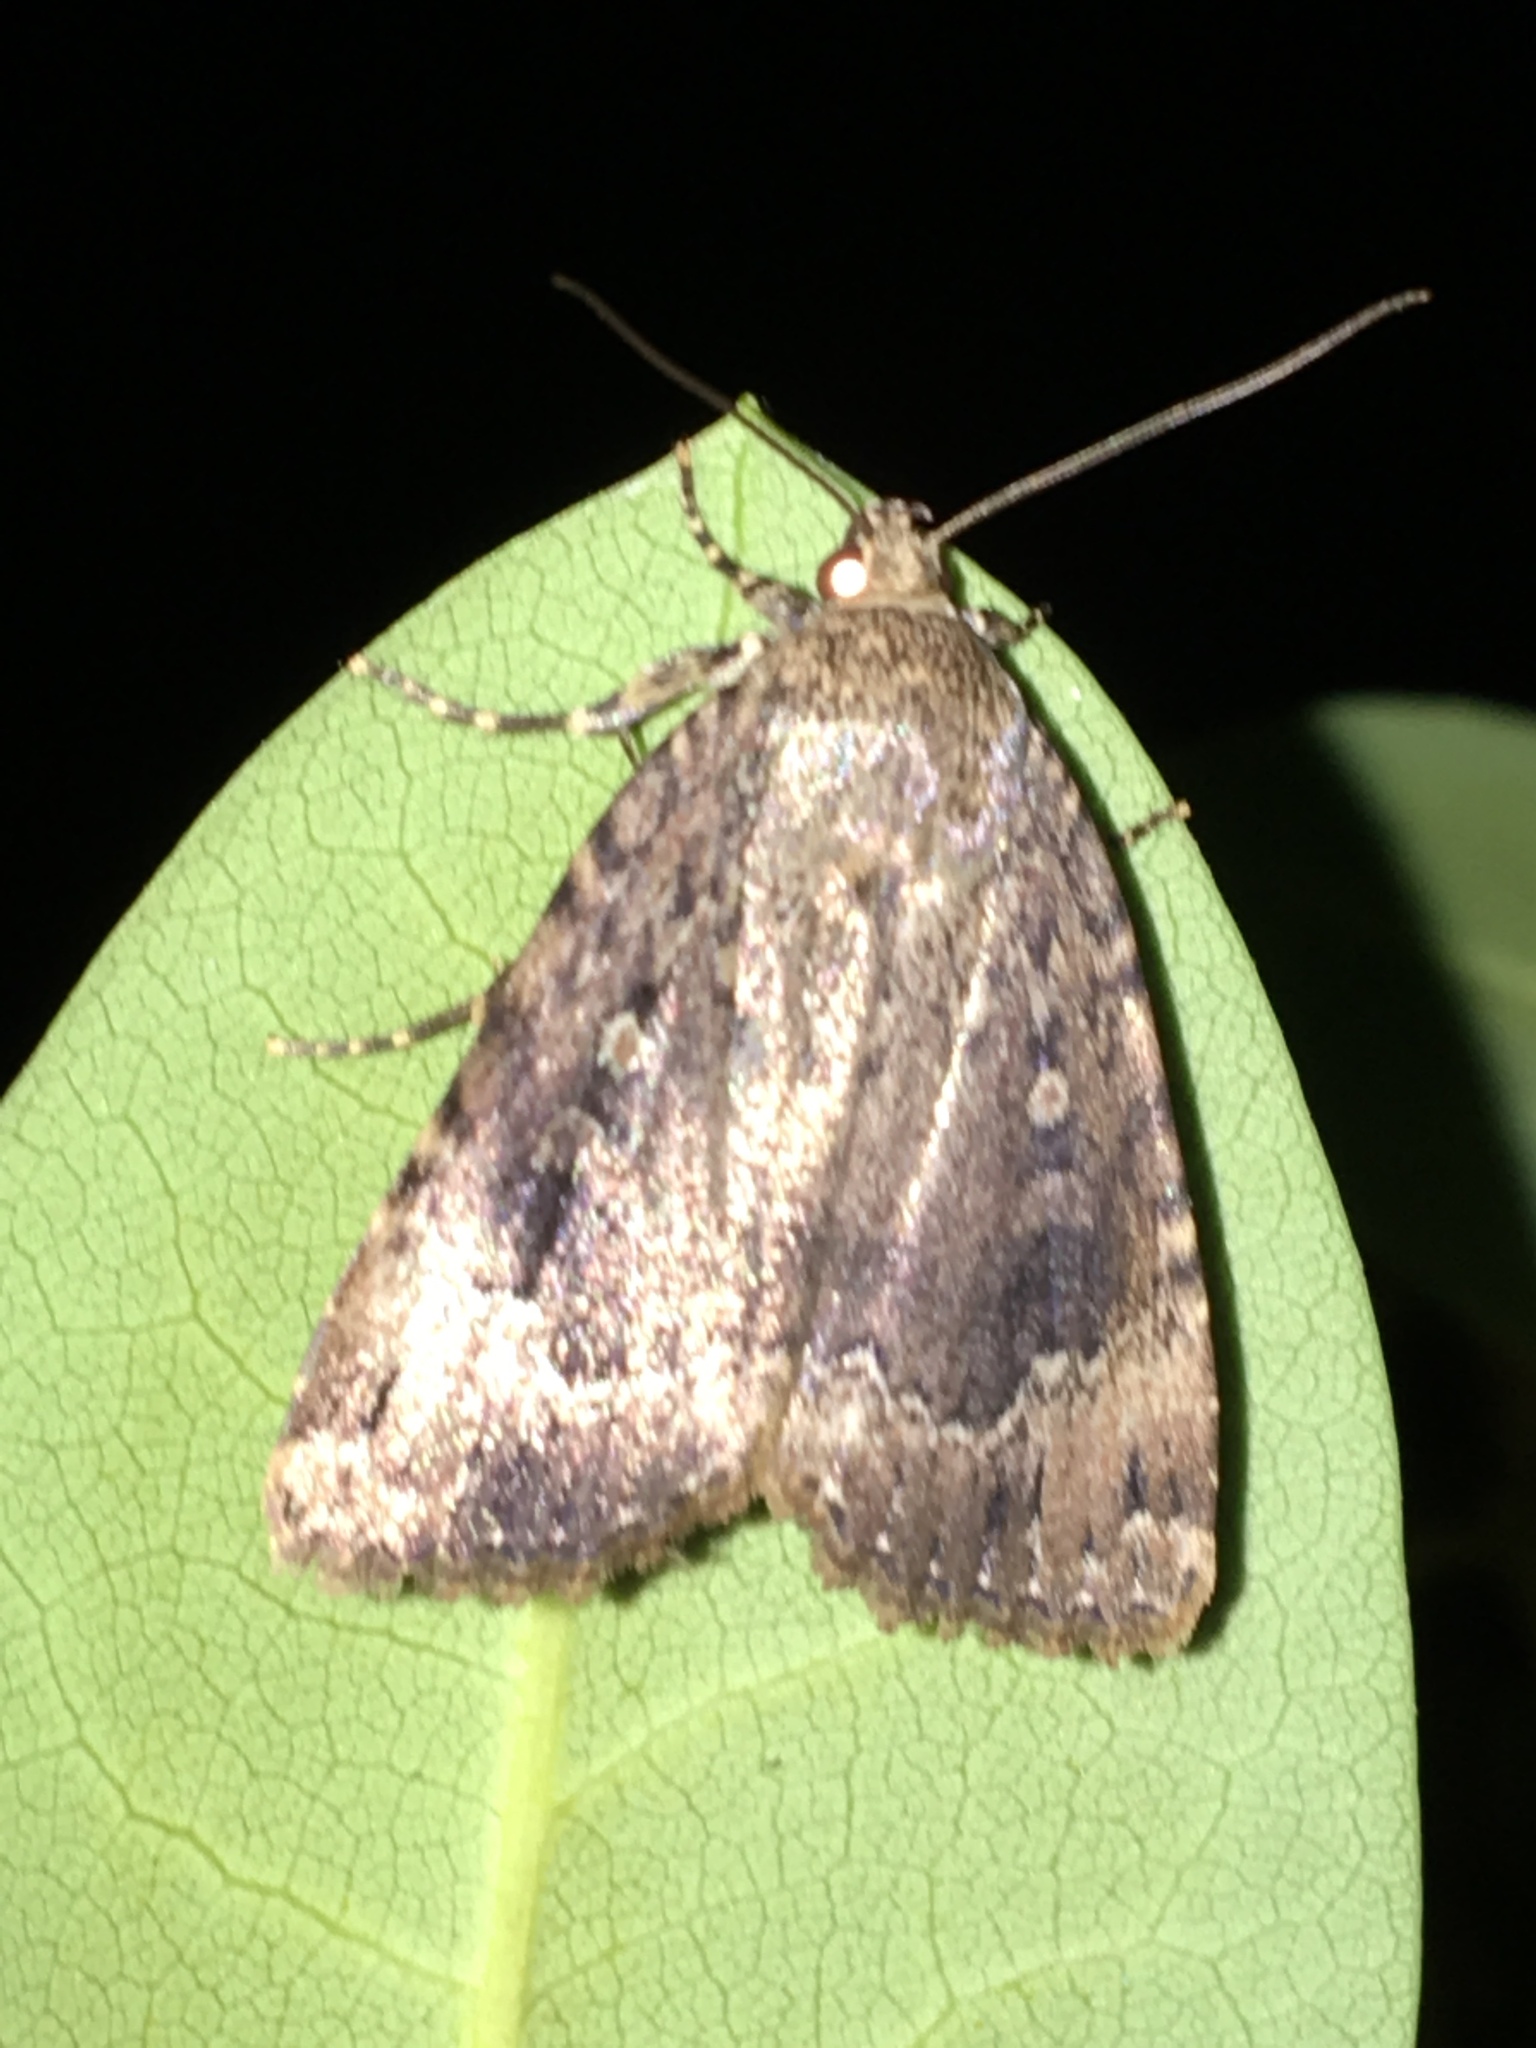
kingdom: Animalia
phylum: Arthropoda
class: Insecta
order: Lepidoptera
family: Noctuidae
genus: Amphipyra
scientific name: Amphipyra pyramidoides
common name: American copper underwing
